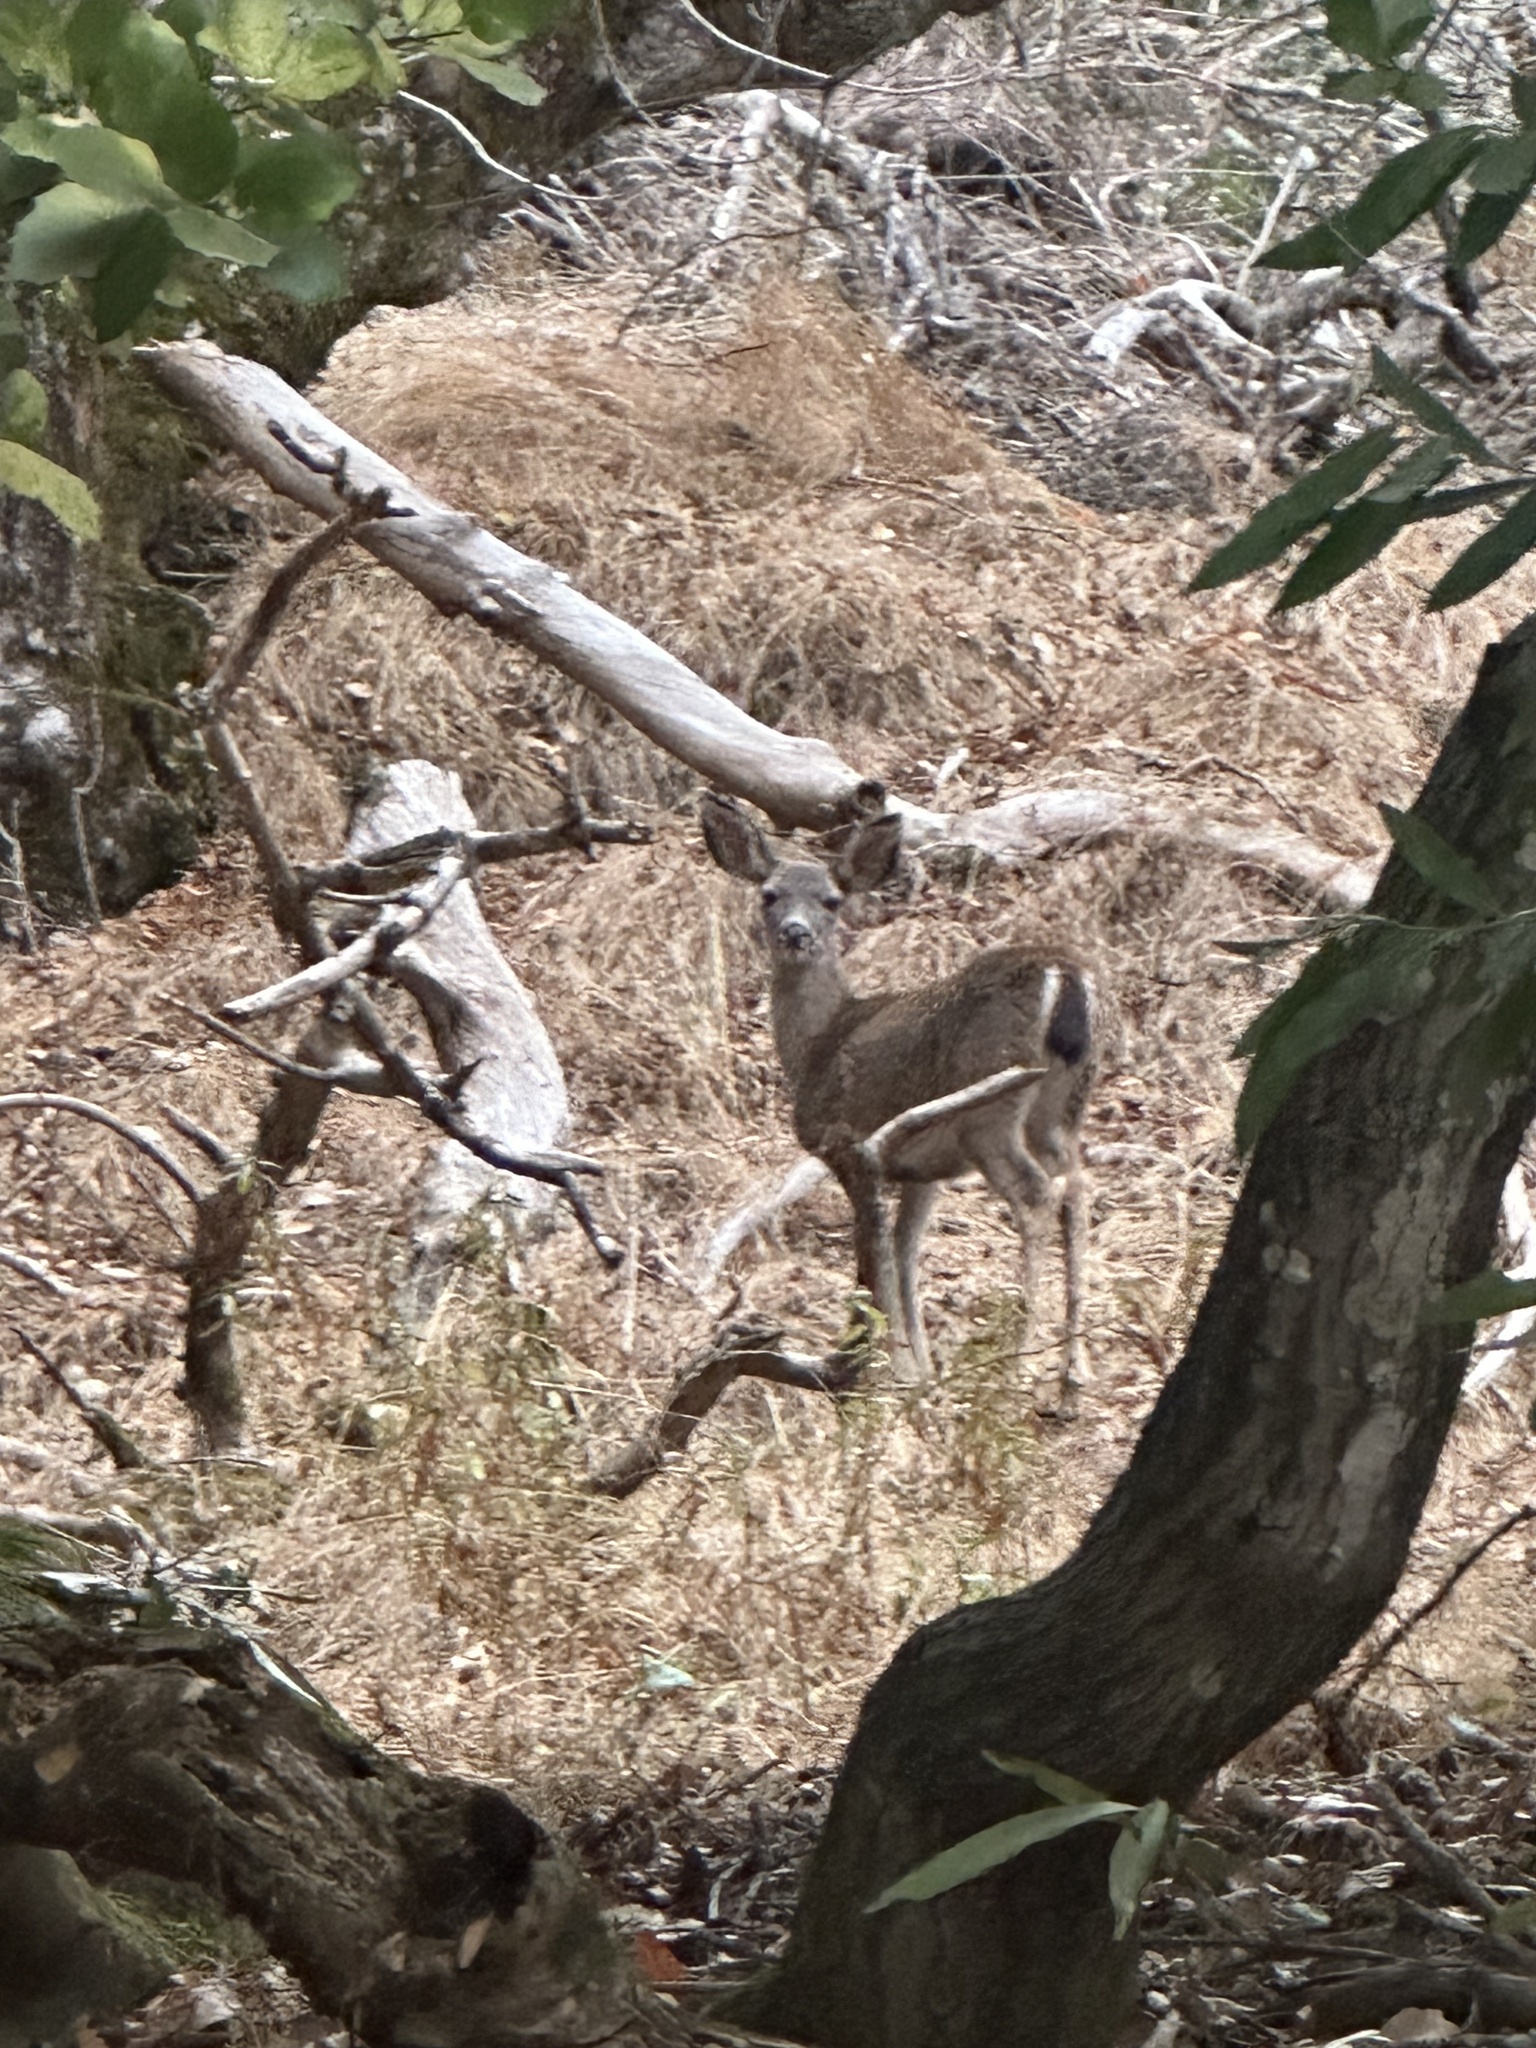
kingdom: Animalia
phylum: Chordata
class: Mammalia
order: Artiodactyla
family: Cervidae
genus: Odocoileus
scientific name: Odocoileus hemionus
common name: Mule deer
